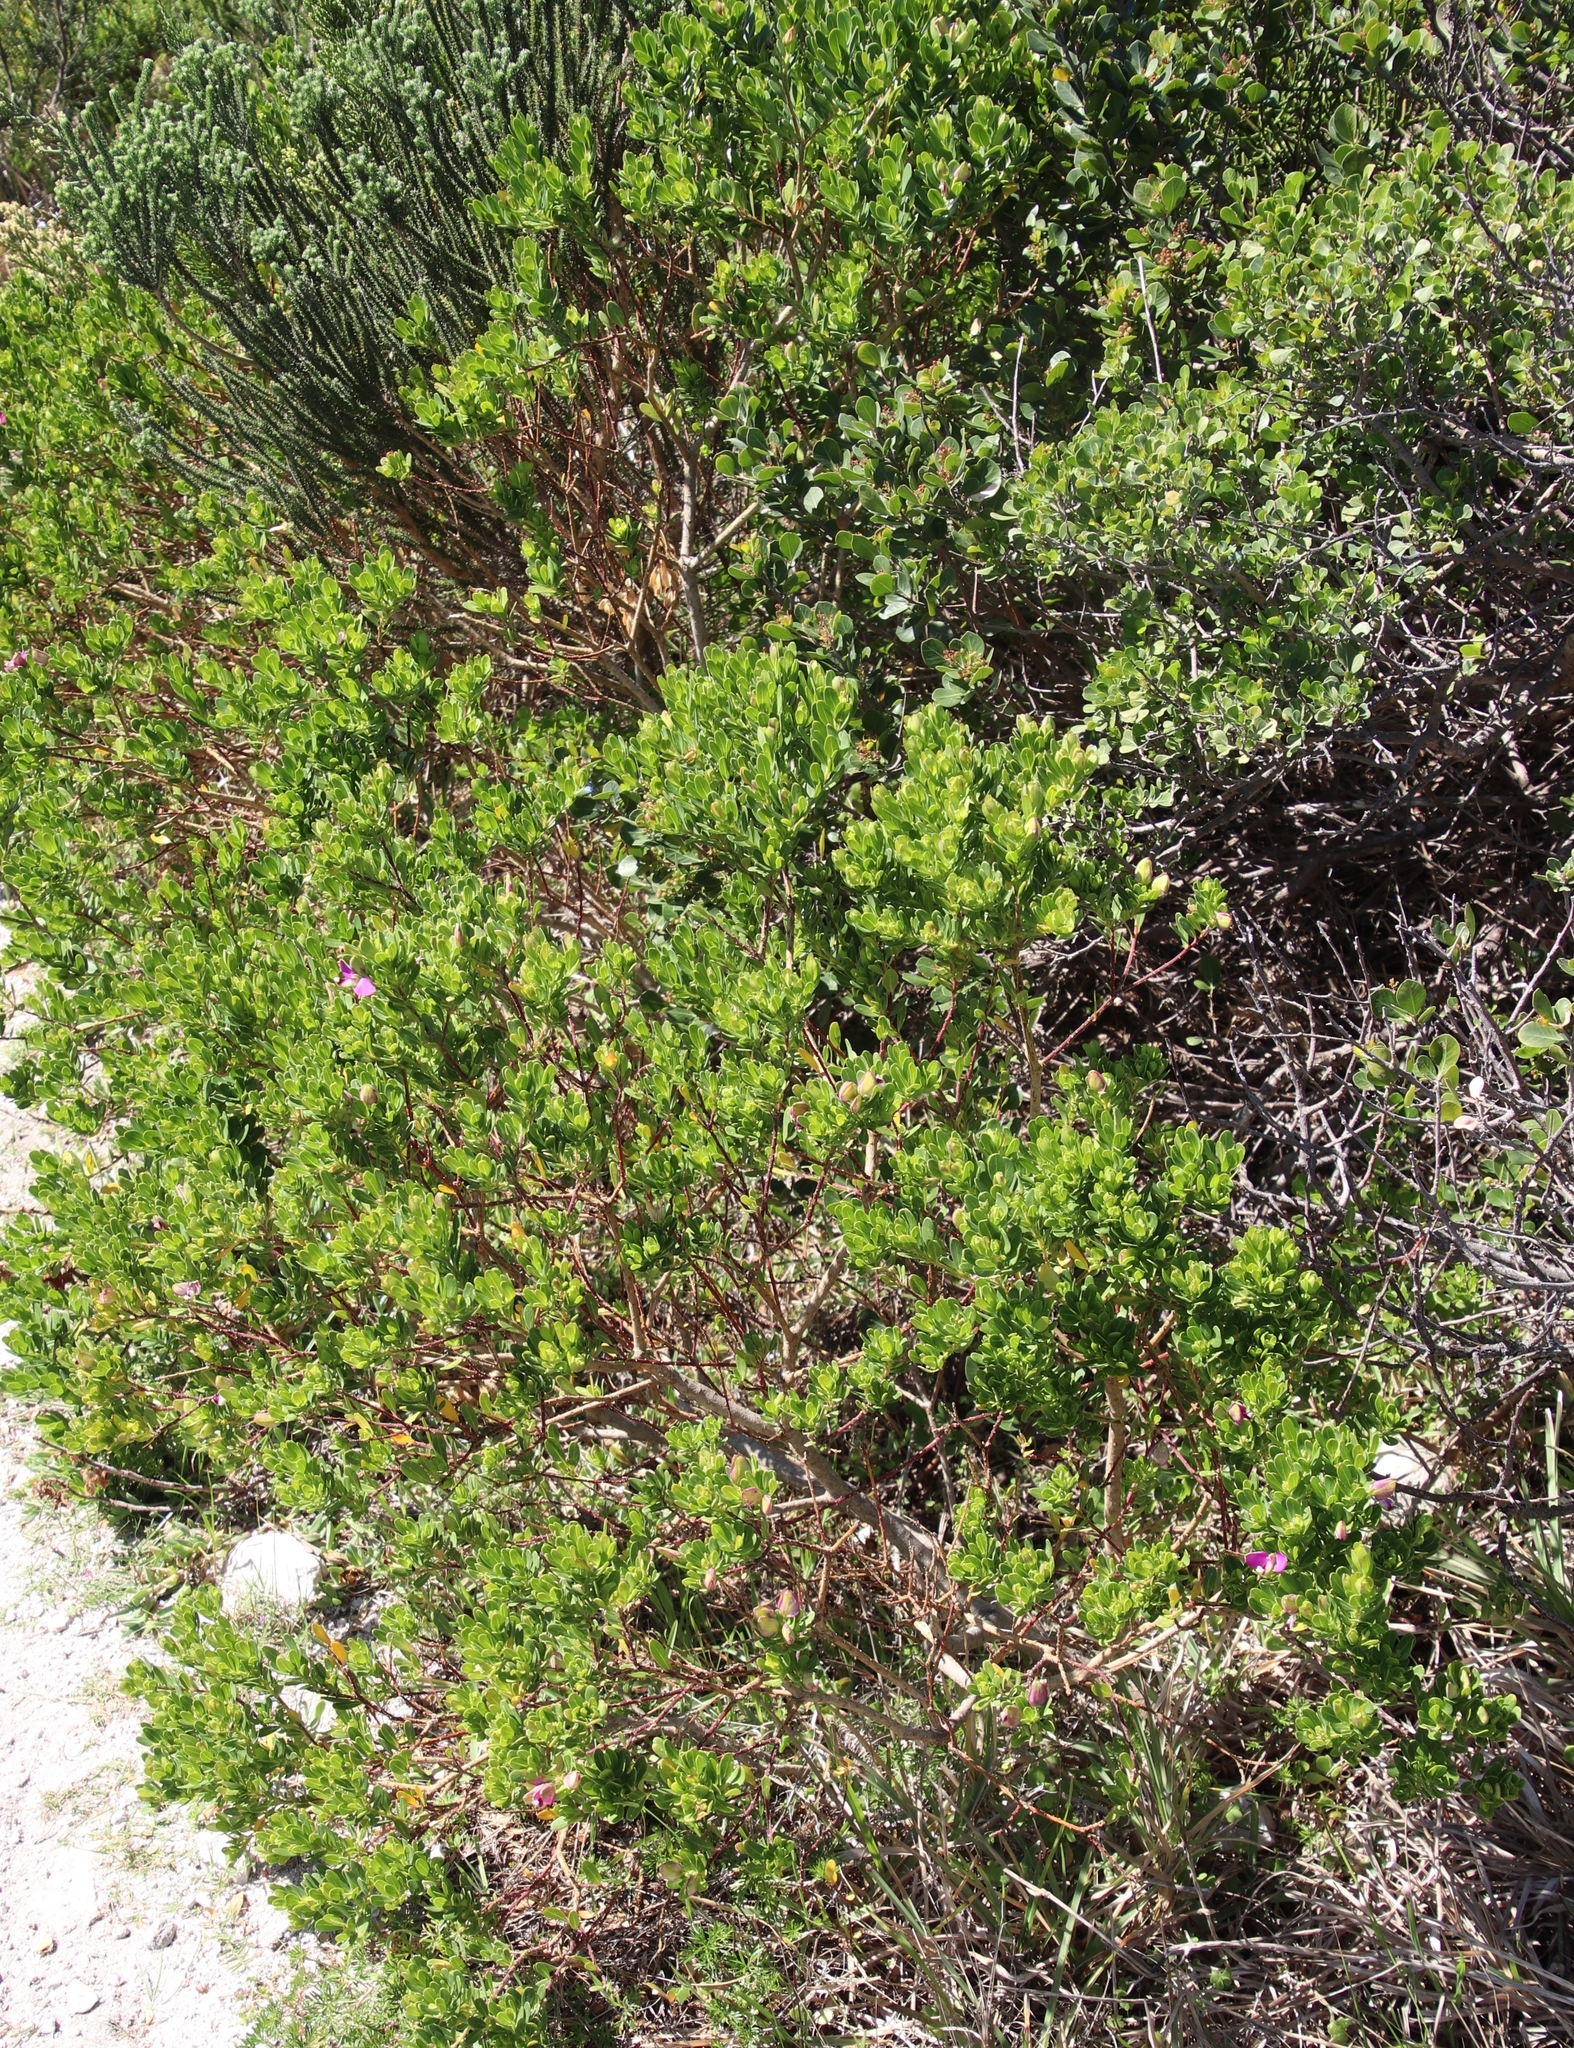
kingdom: Plantae
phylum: Tracheophyta
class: Magnoliopsida
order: Fabales
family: Polygalaceae
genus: Polygala
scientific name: Polygala myrtifolia
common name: Myrtle-leaf milkwort
